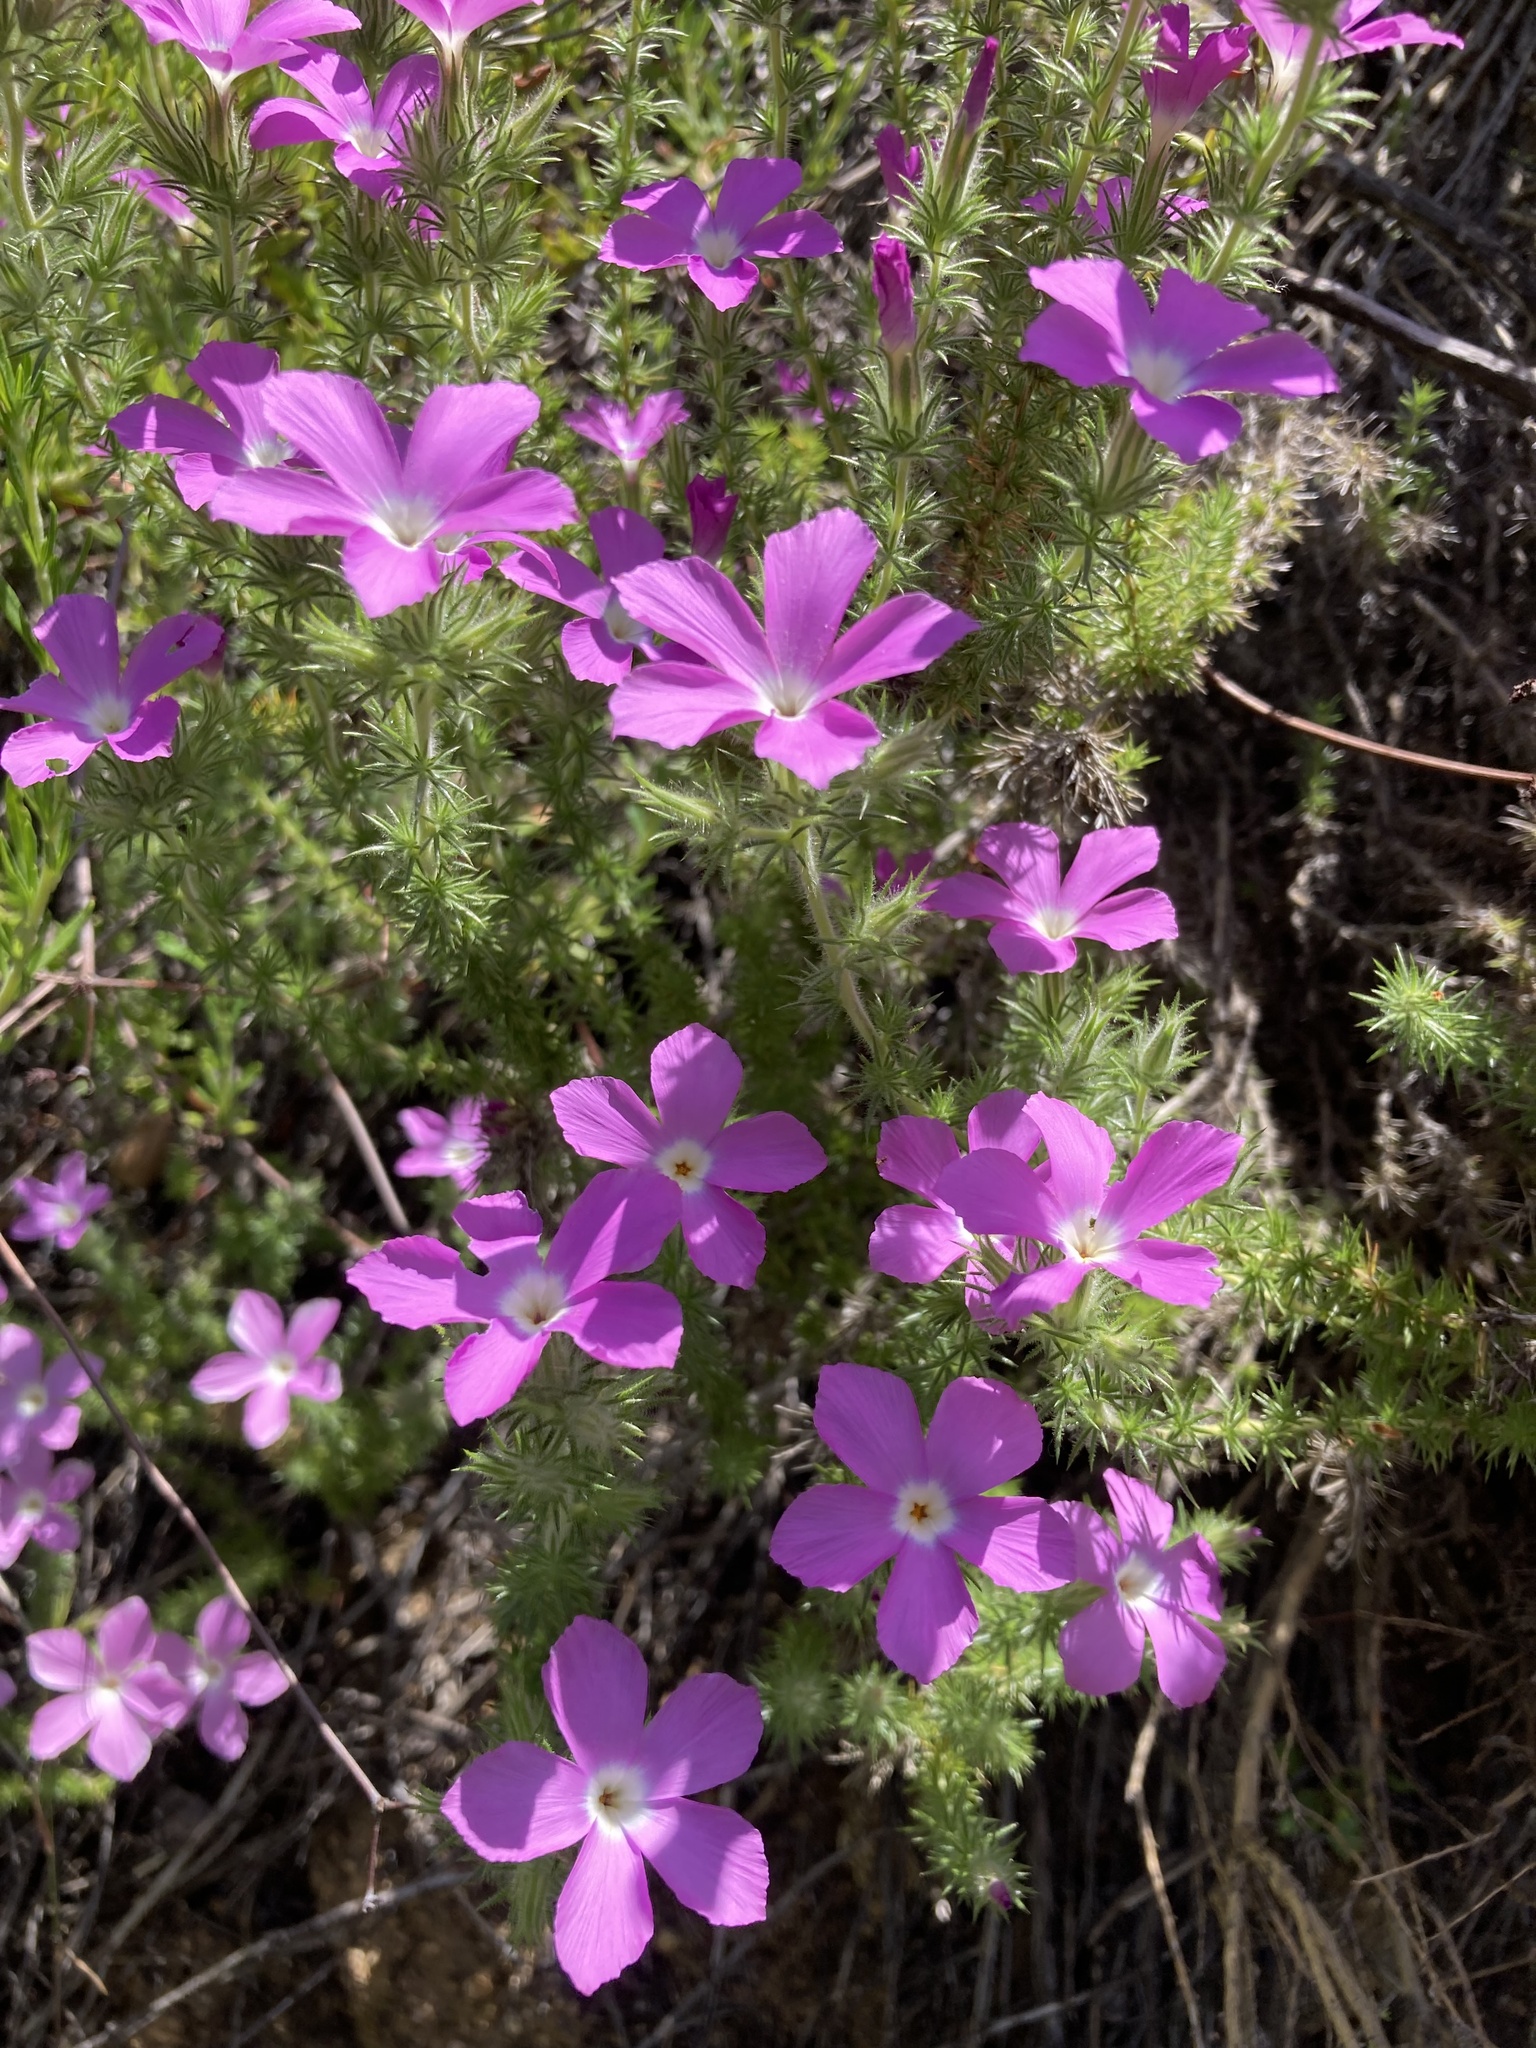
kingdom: Plantae
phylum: Tracheophyta
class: Magnoliopsida
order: Ericales
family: Polemoniaceae
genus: Linanthus
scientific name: Linanthus californicus
